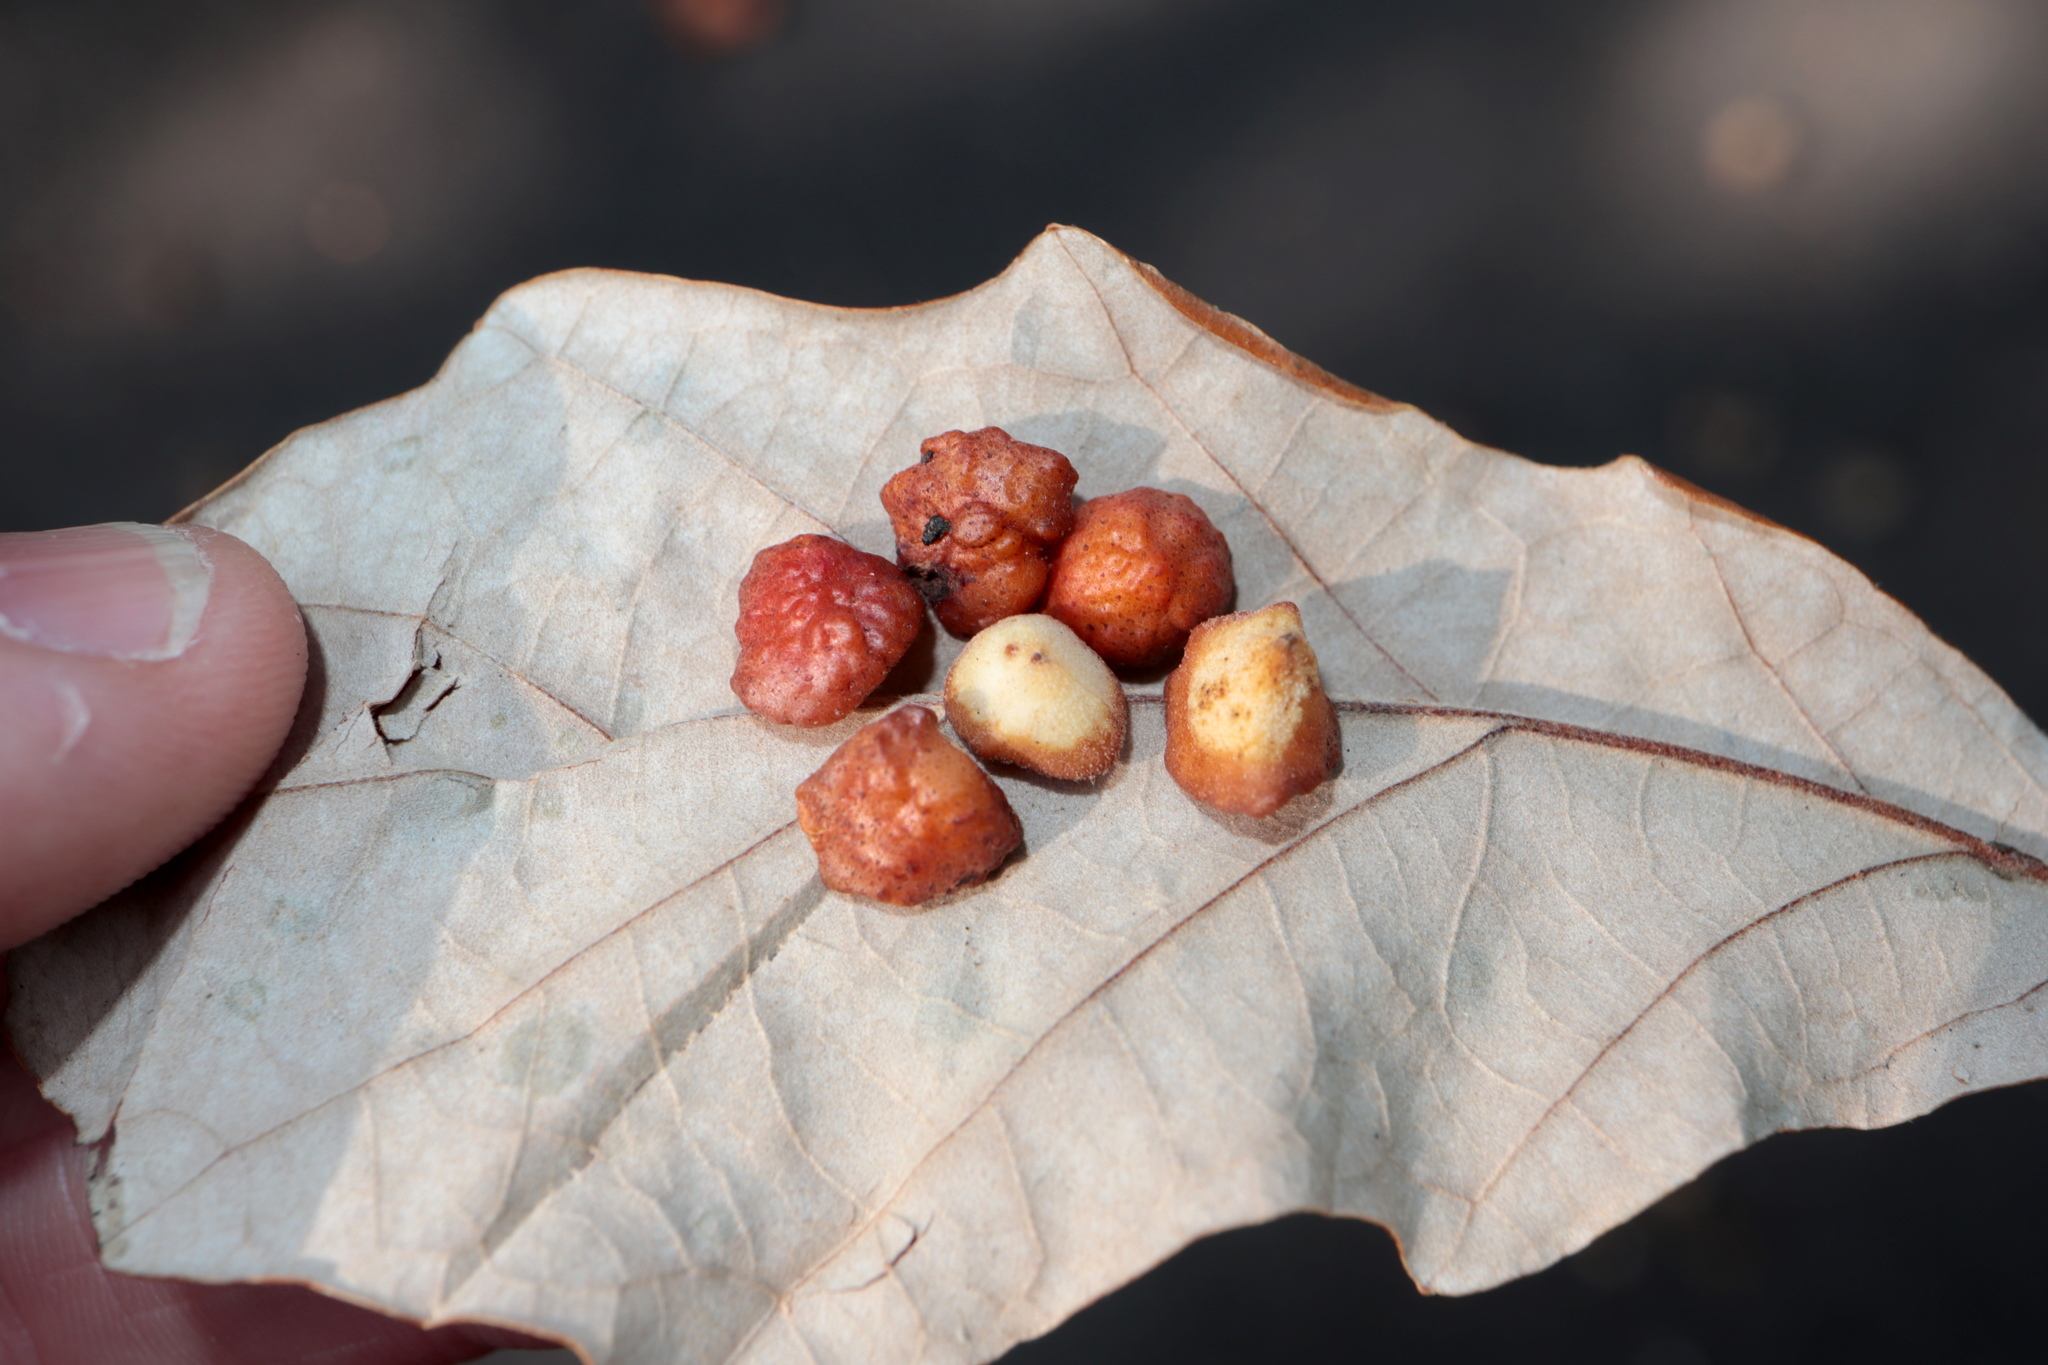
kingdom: Animalia
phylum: Arthropoda
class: Insecta
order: Hymenoptera
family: Cynipidae
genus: Andricus
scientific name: Andricus
